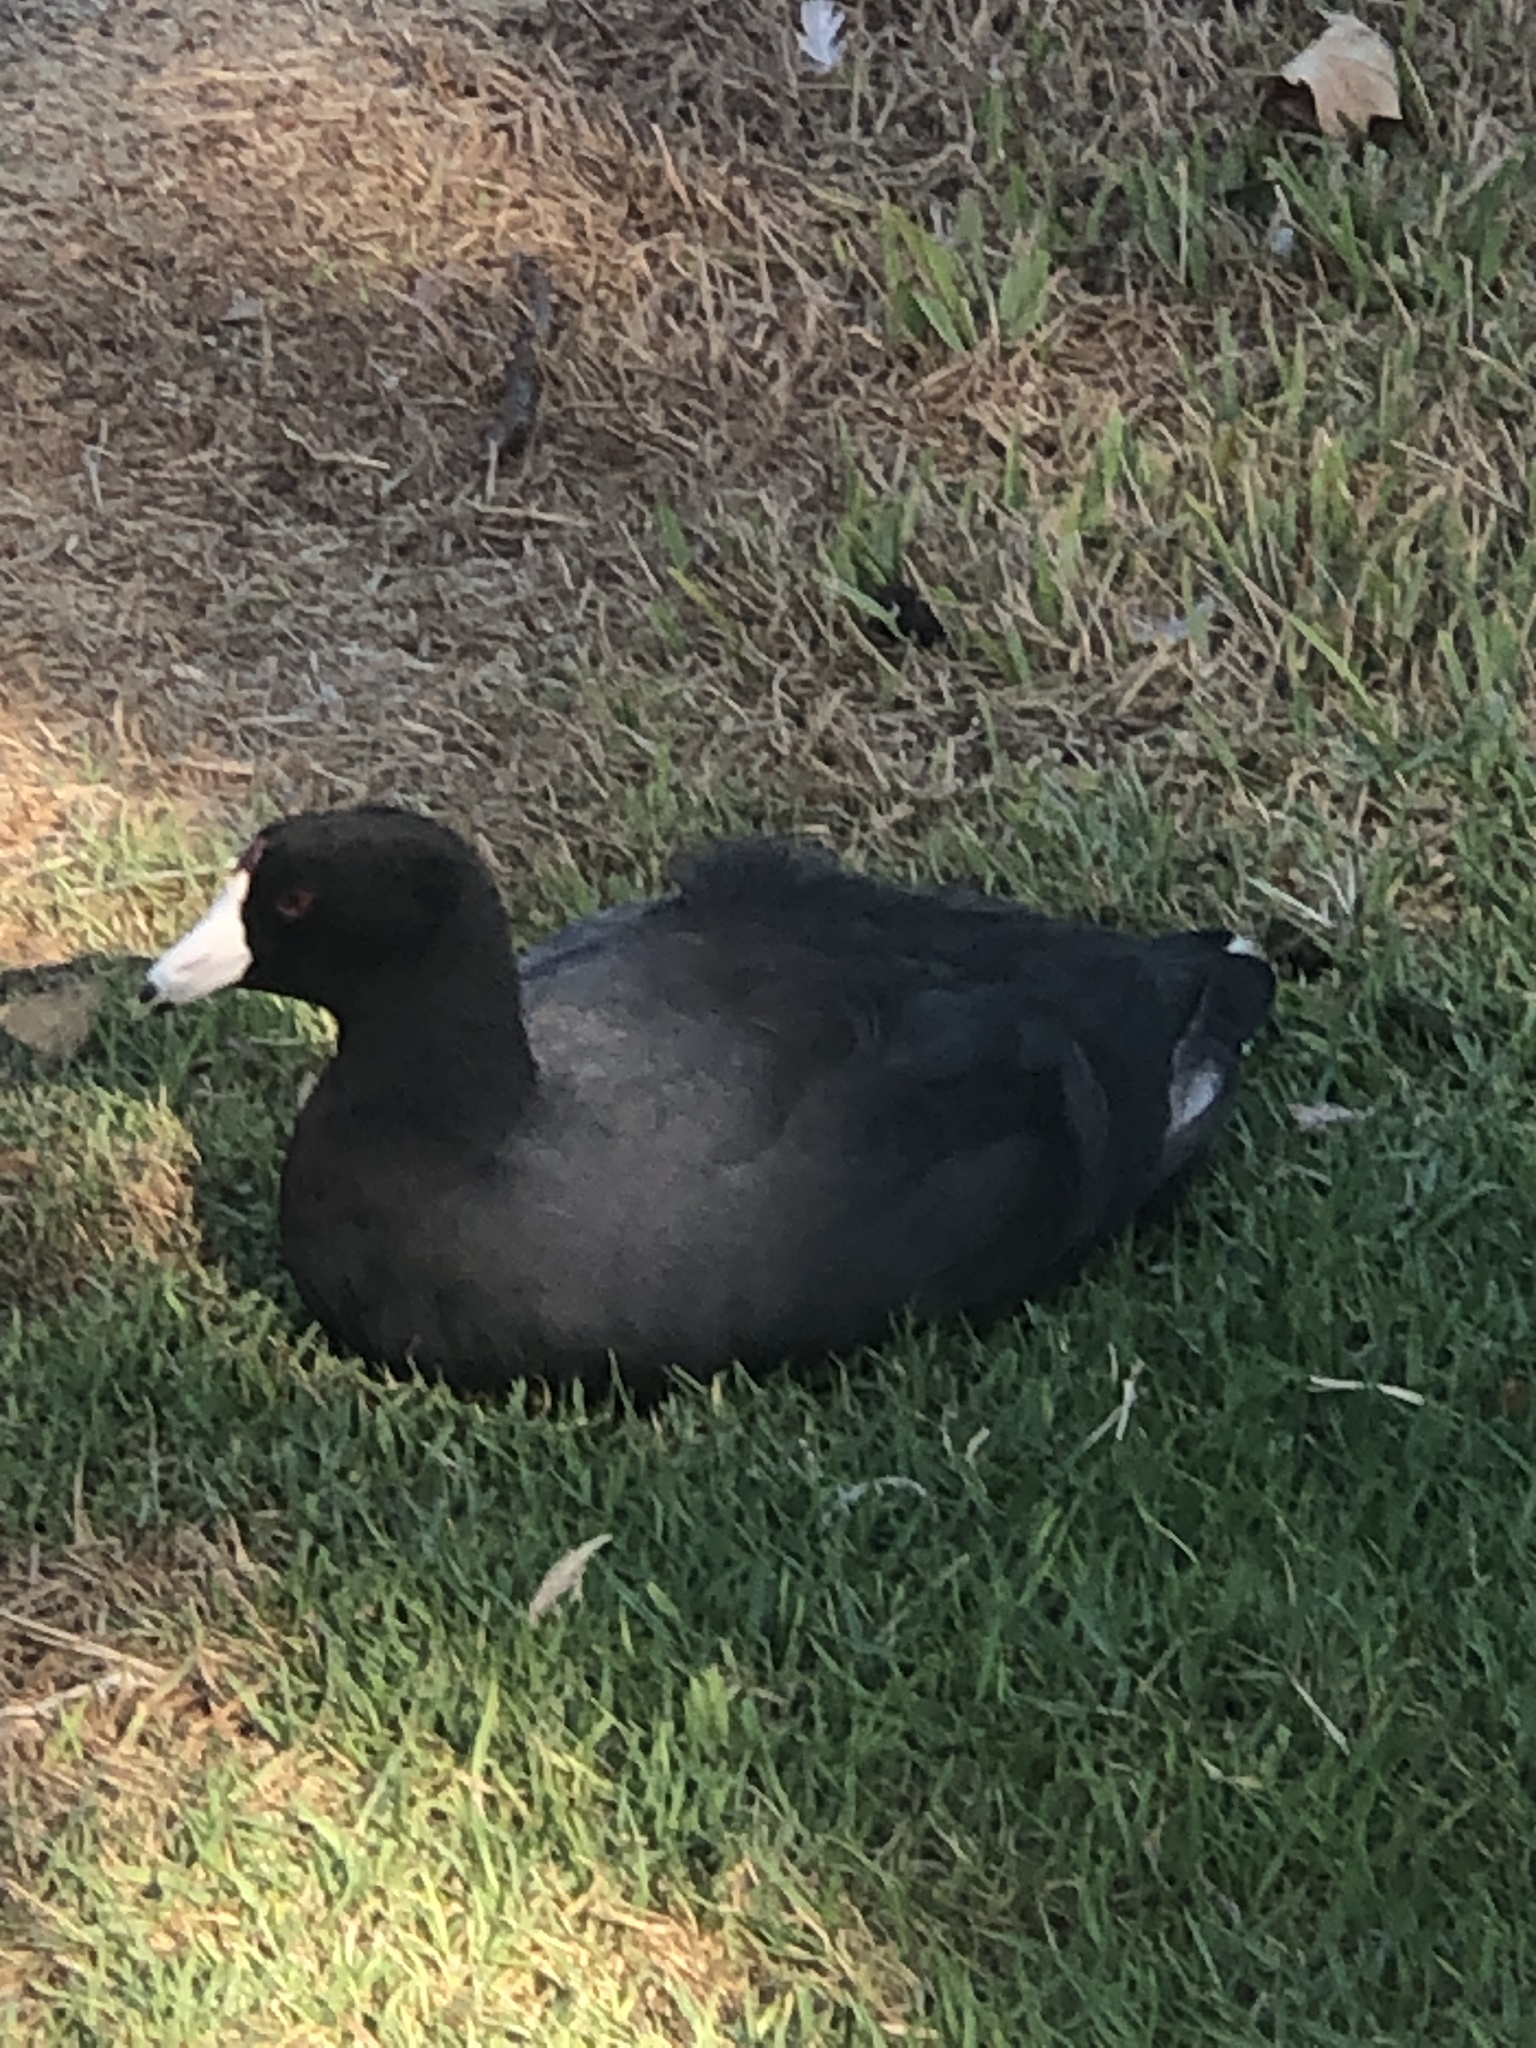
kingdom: Animalia
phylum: Chordata
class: Aves
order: Gruiformes
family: Rallidae
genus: Fulica
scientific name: Fulica americana
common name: American coot
